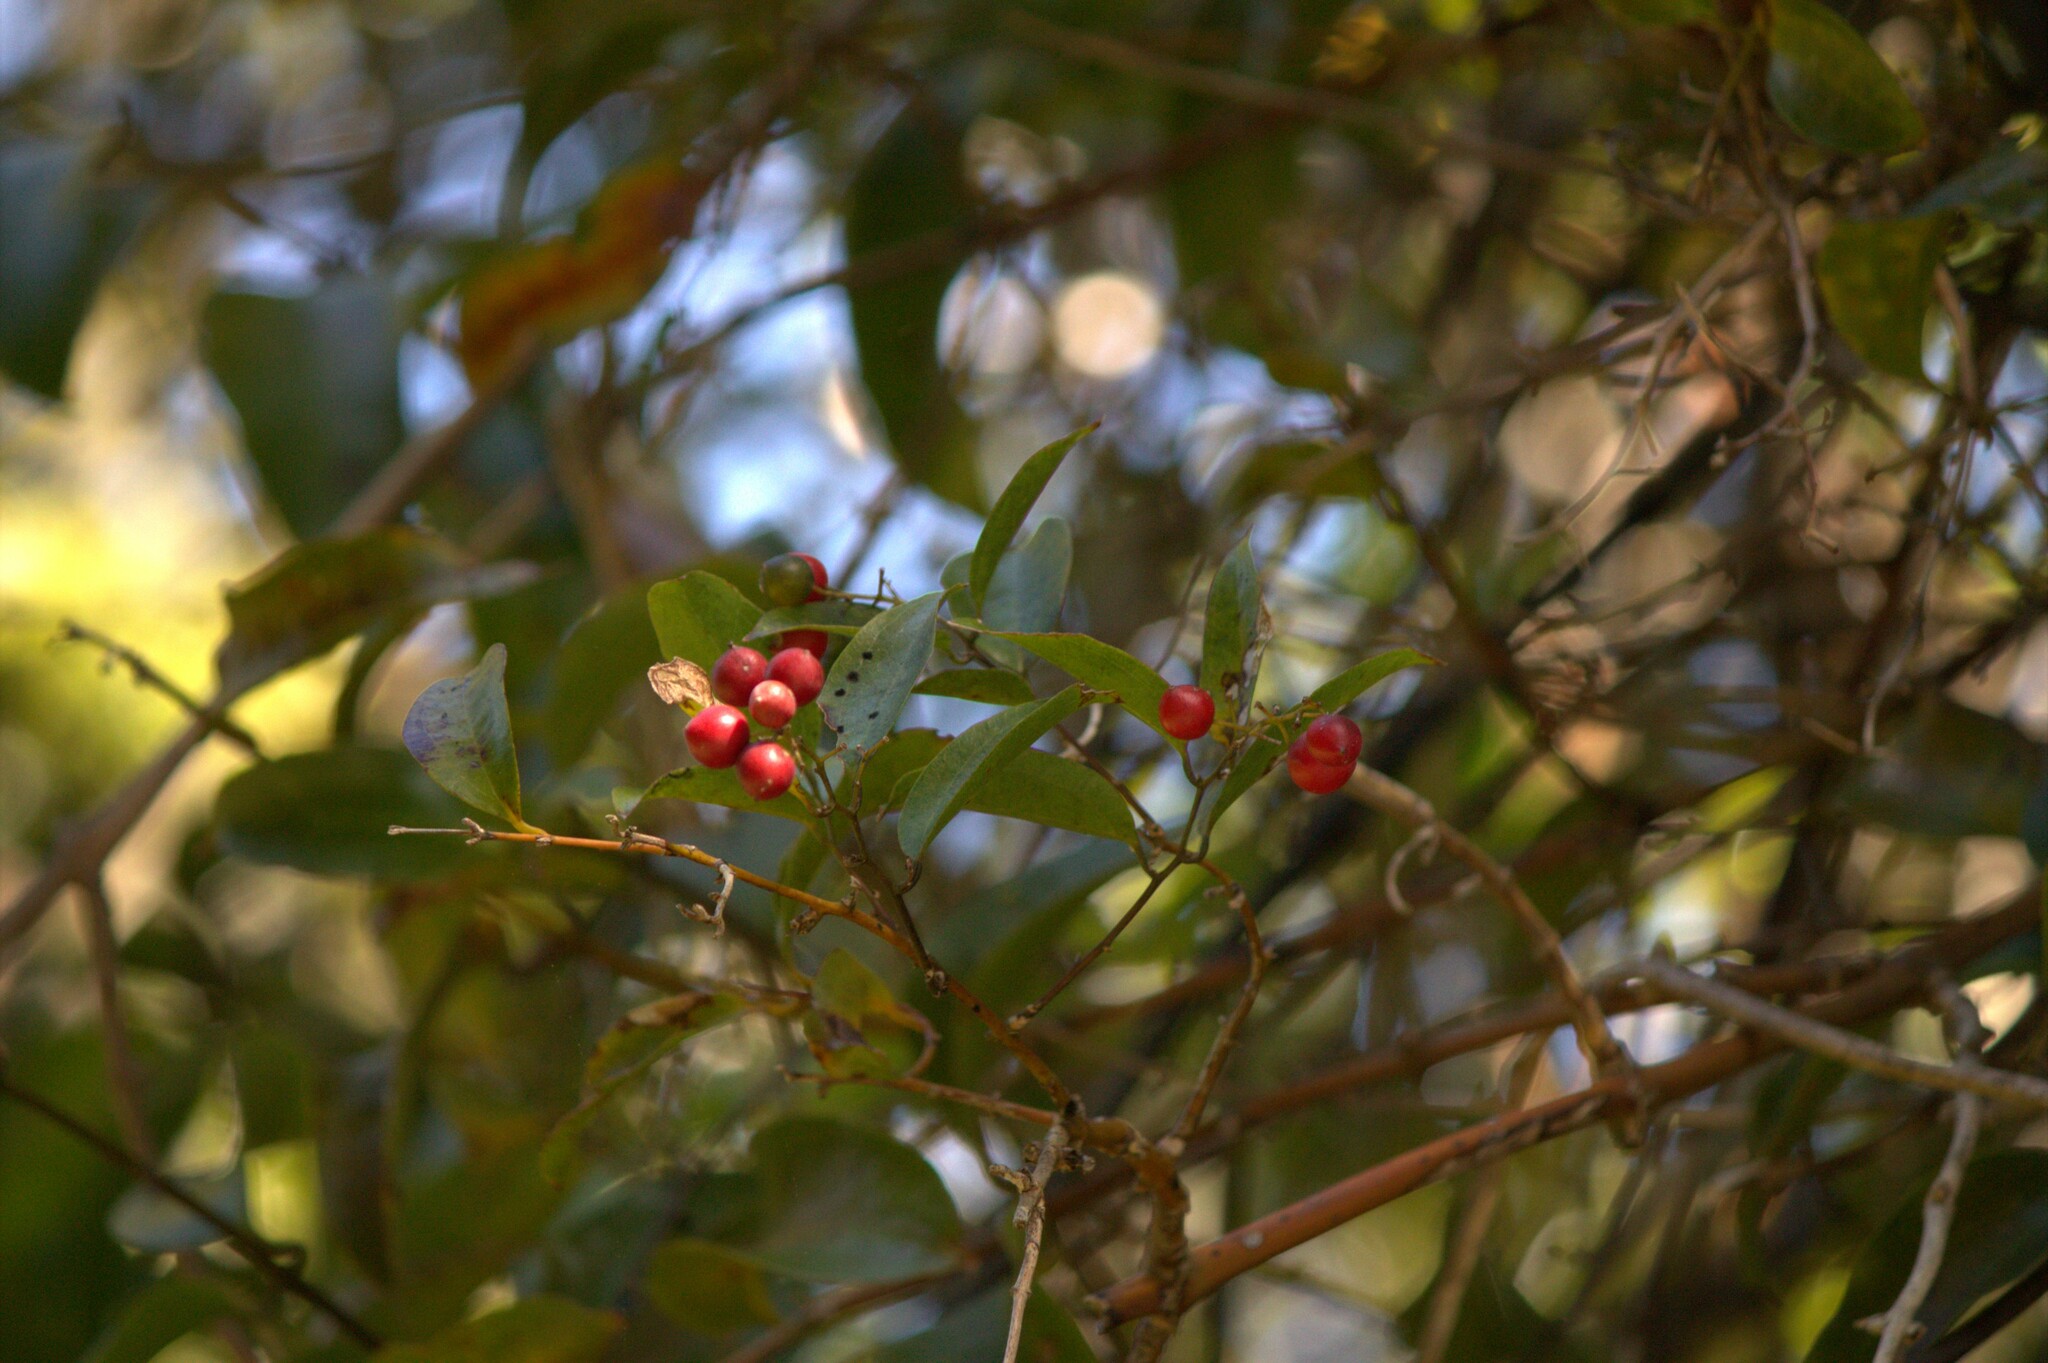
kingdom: Plantae
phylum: Tracheophyta
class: Liliopsida
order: Liliales
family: Ripogonaceae
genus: Ripogonum
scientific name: Ripogonum scandens
